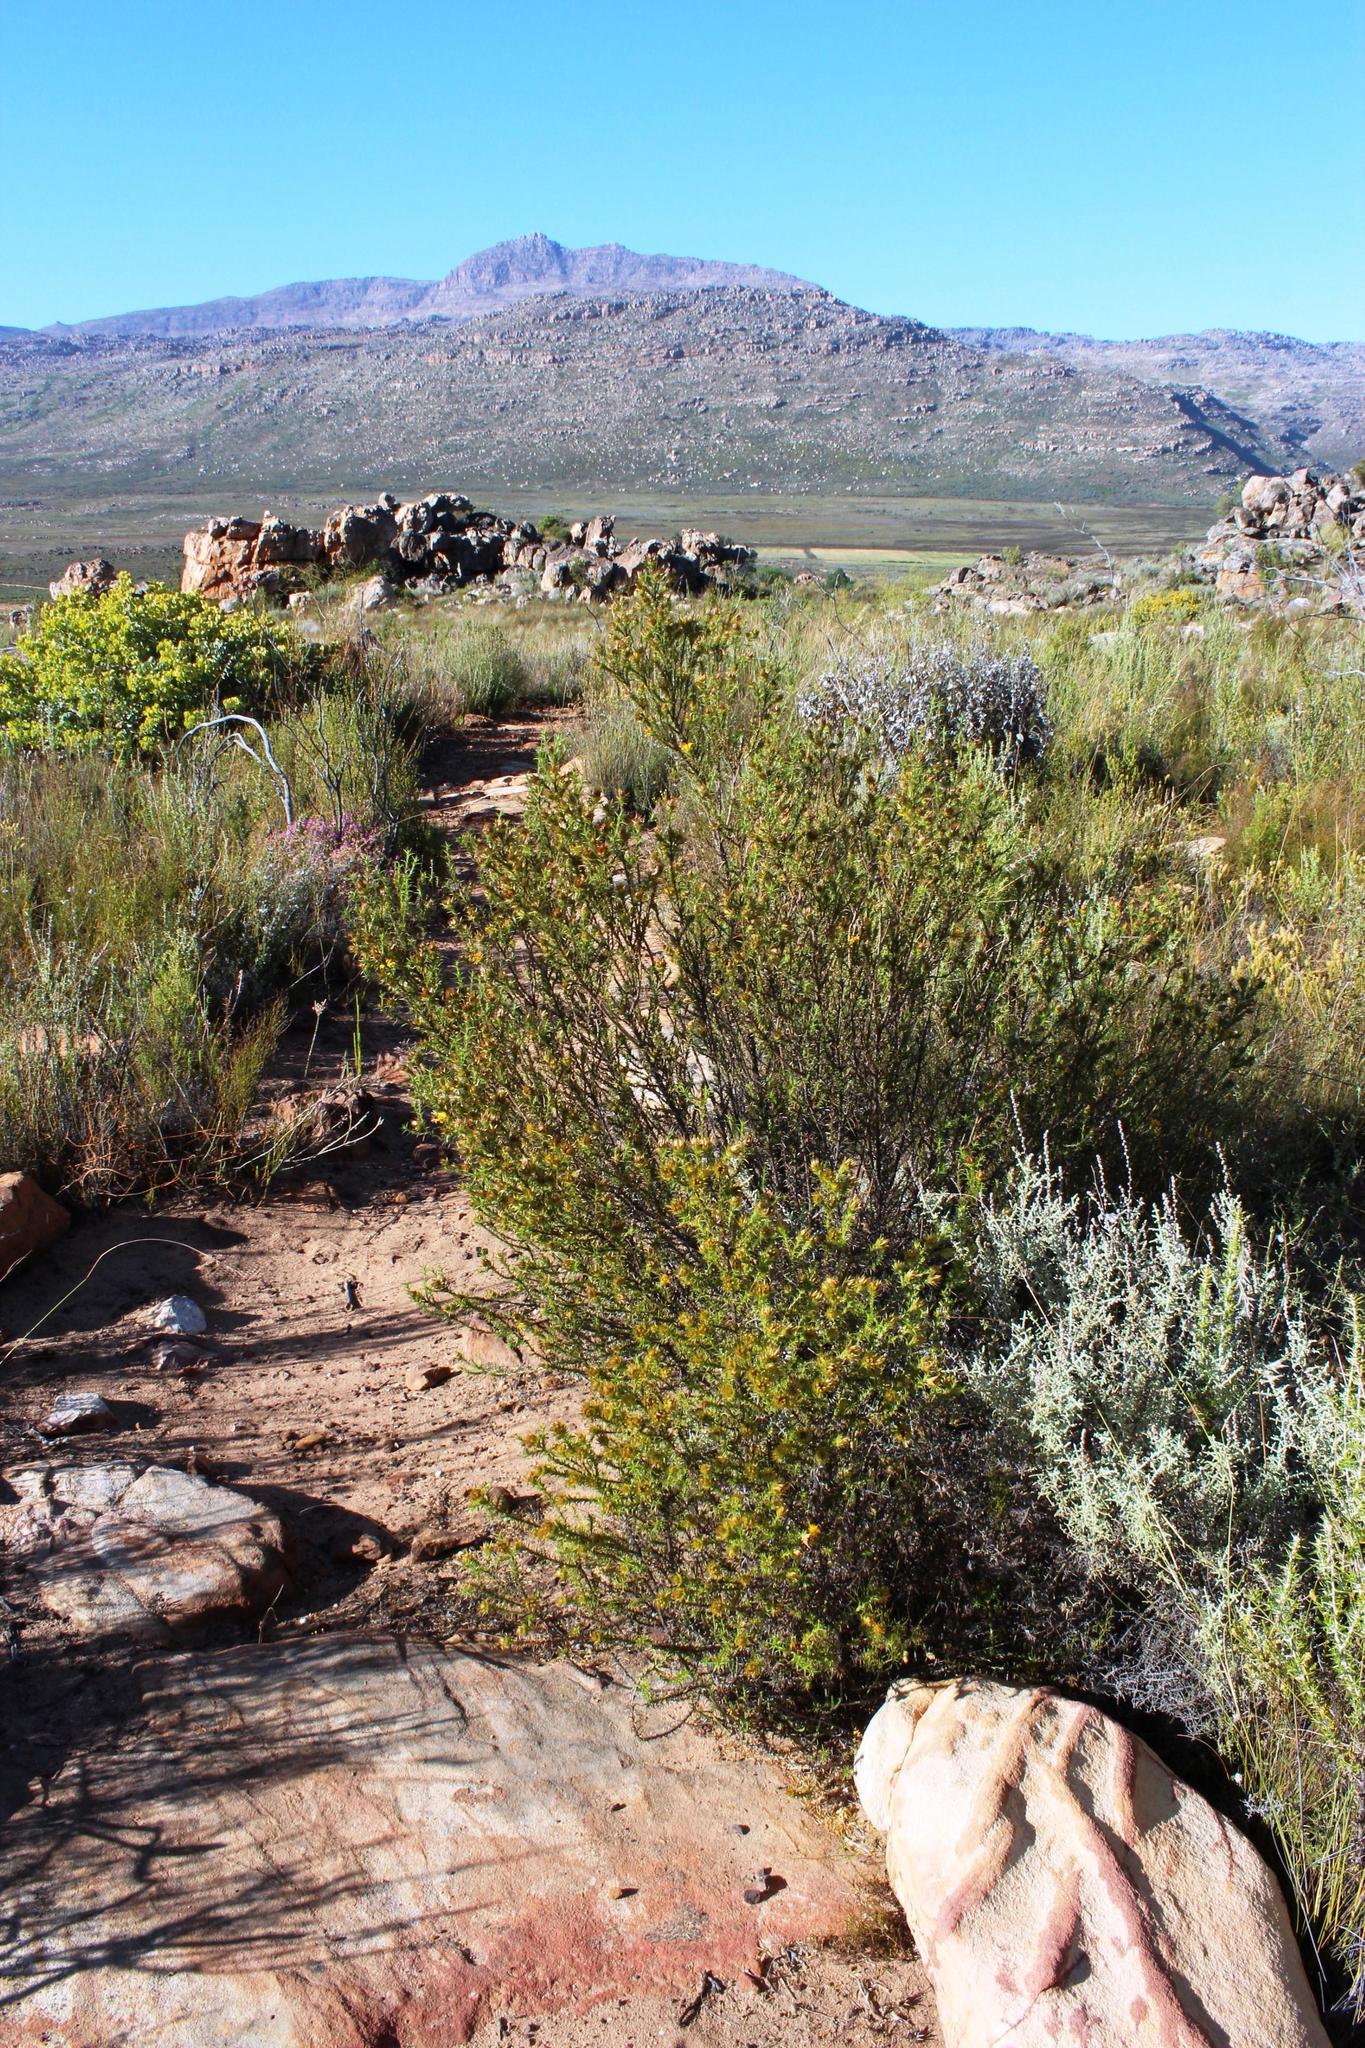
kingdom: Plantae
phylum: Tracheophyta
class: Magnoliopsida
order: Asterales
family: Asteraceae
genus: Cullumia
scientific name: Cullumia bisulca
